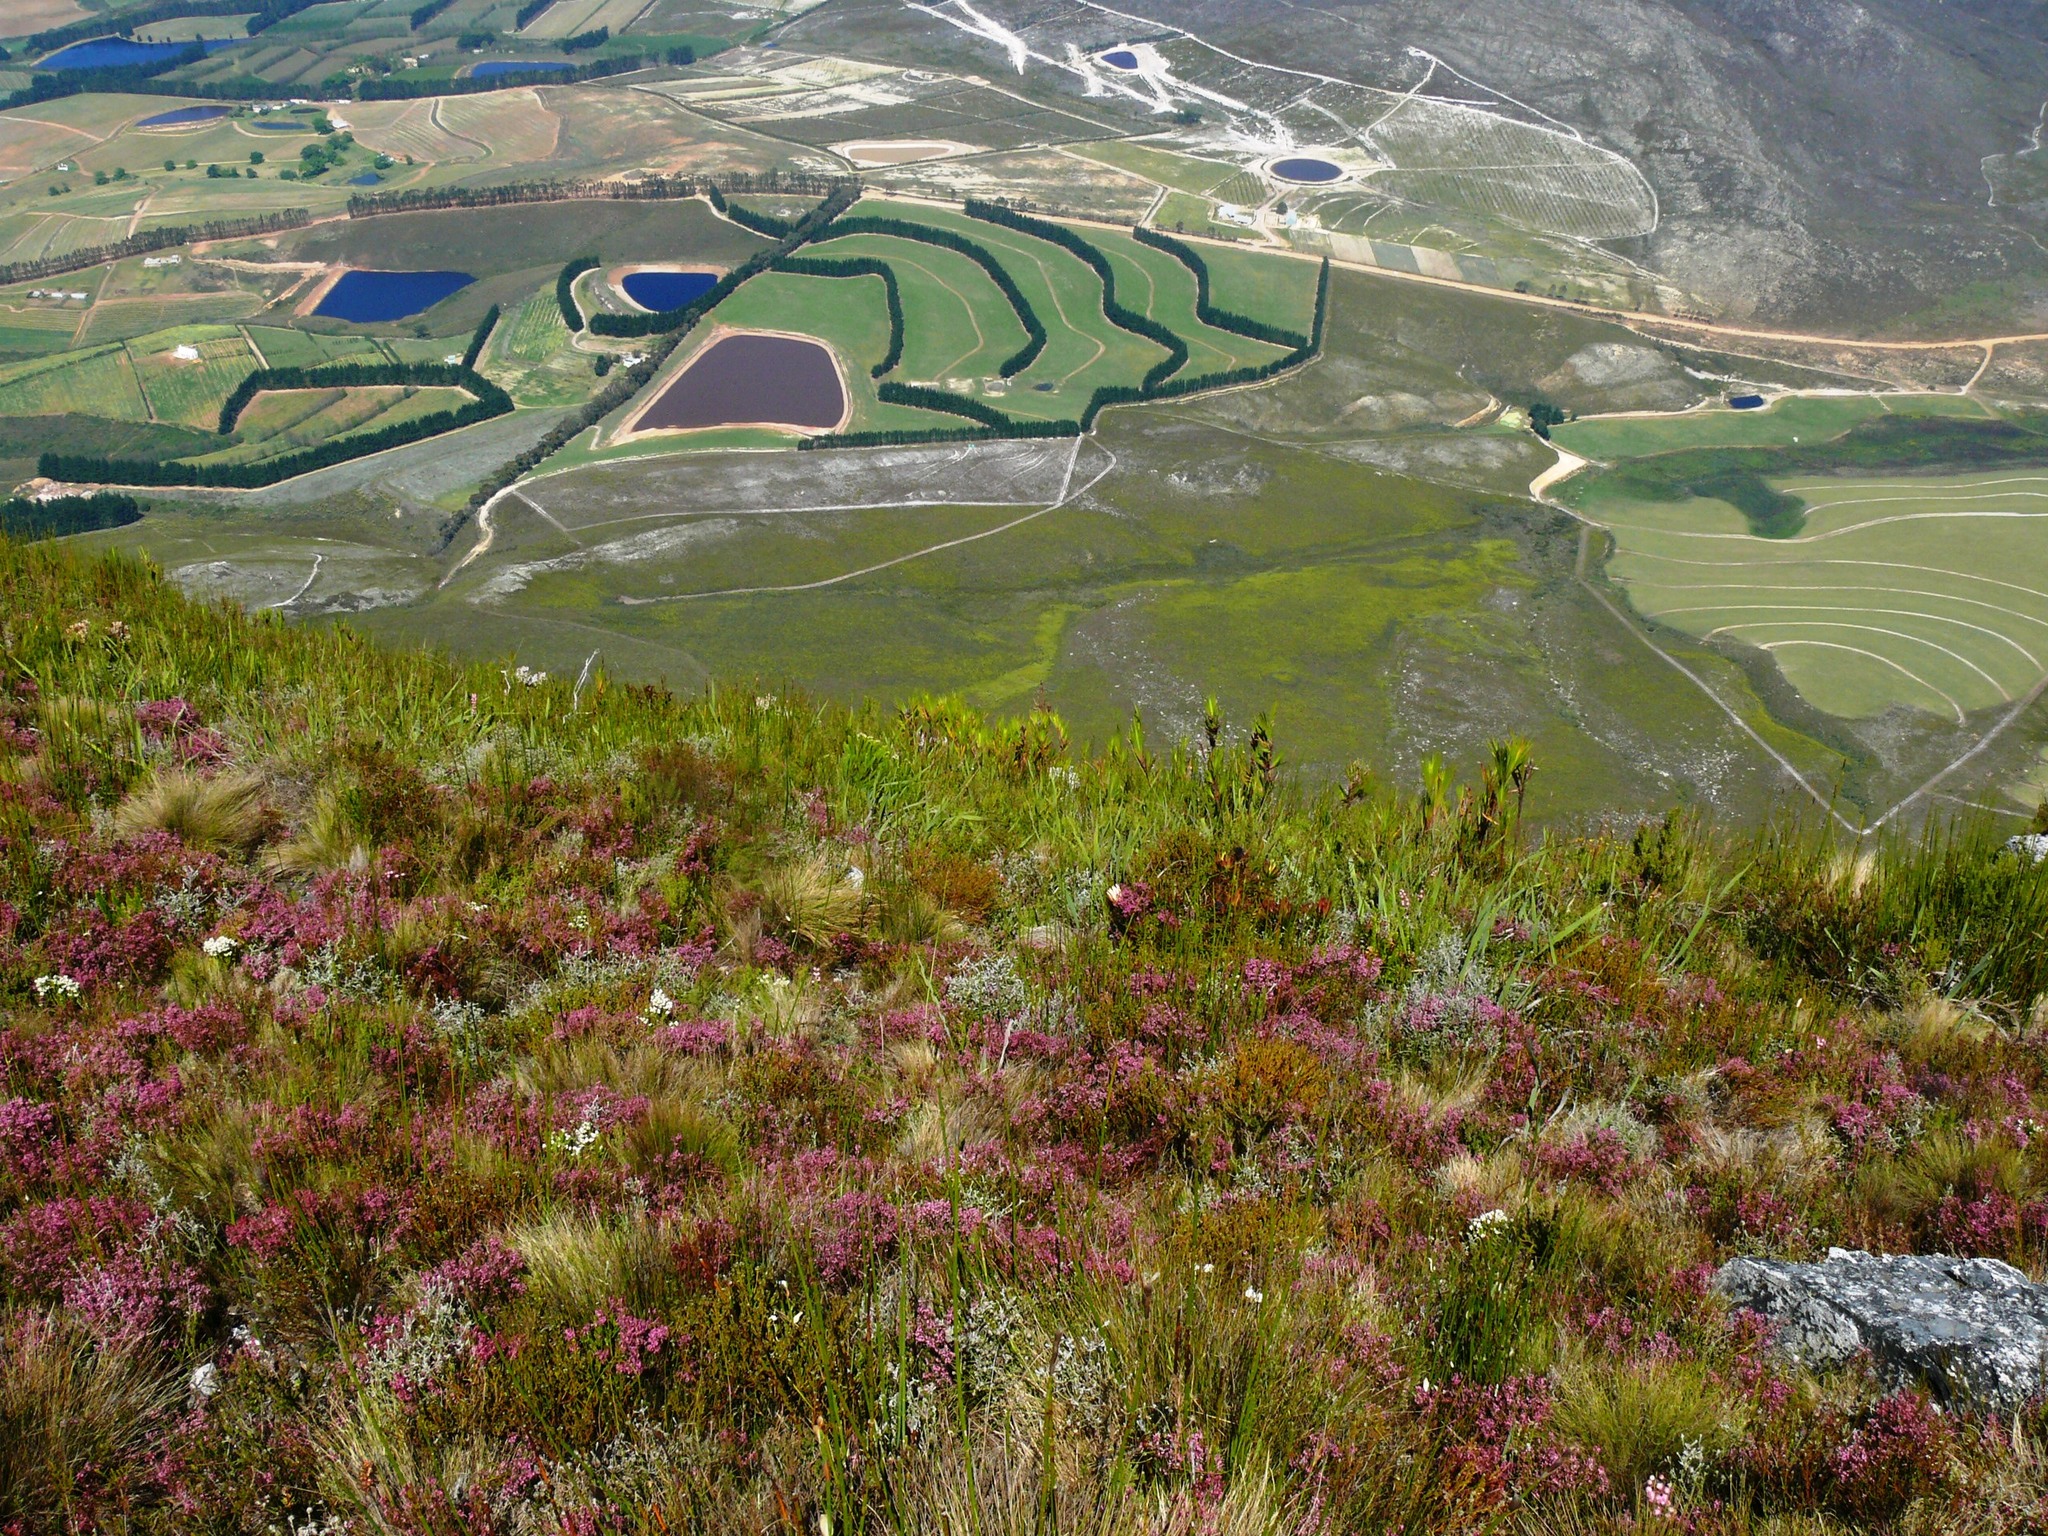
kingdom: Plantae
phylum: Tracheophyta
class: Magnoliopsida
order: Ericales
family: Ericaceae
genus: Erica
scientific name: Erica calycina
